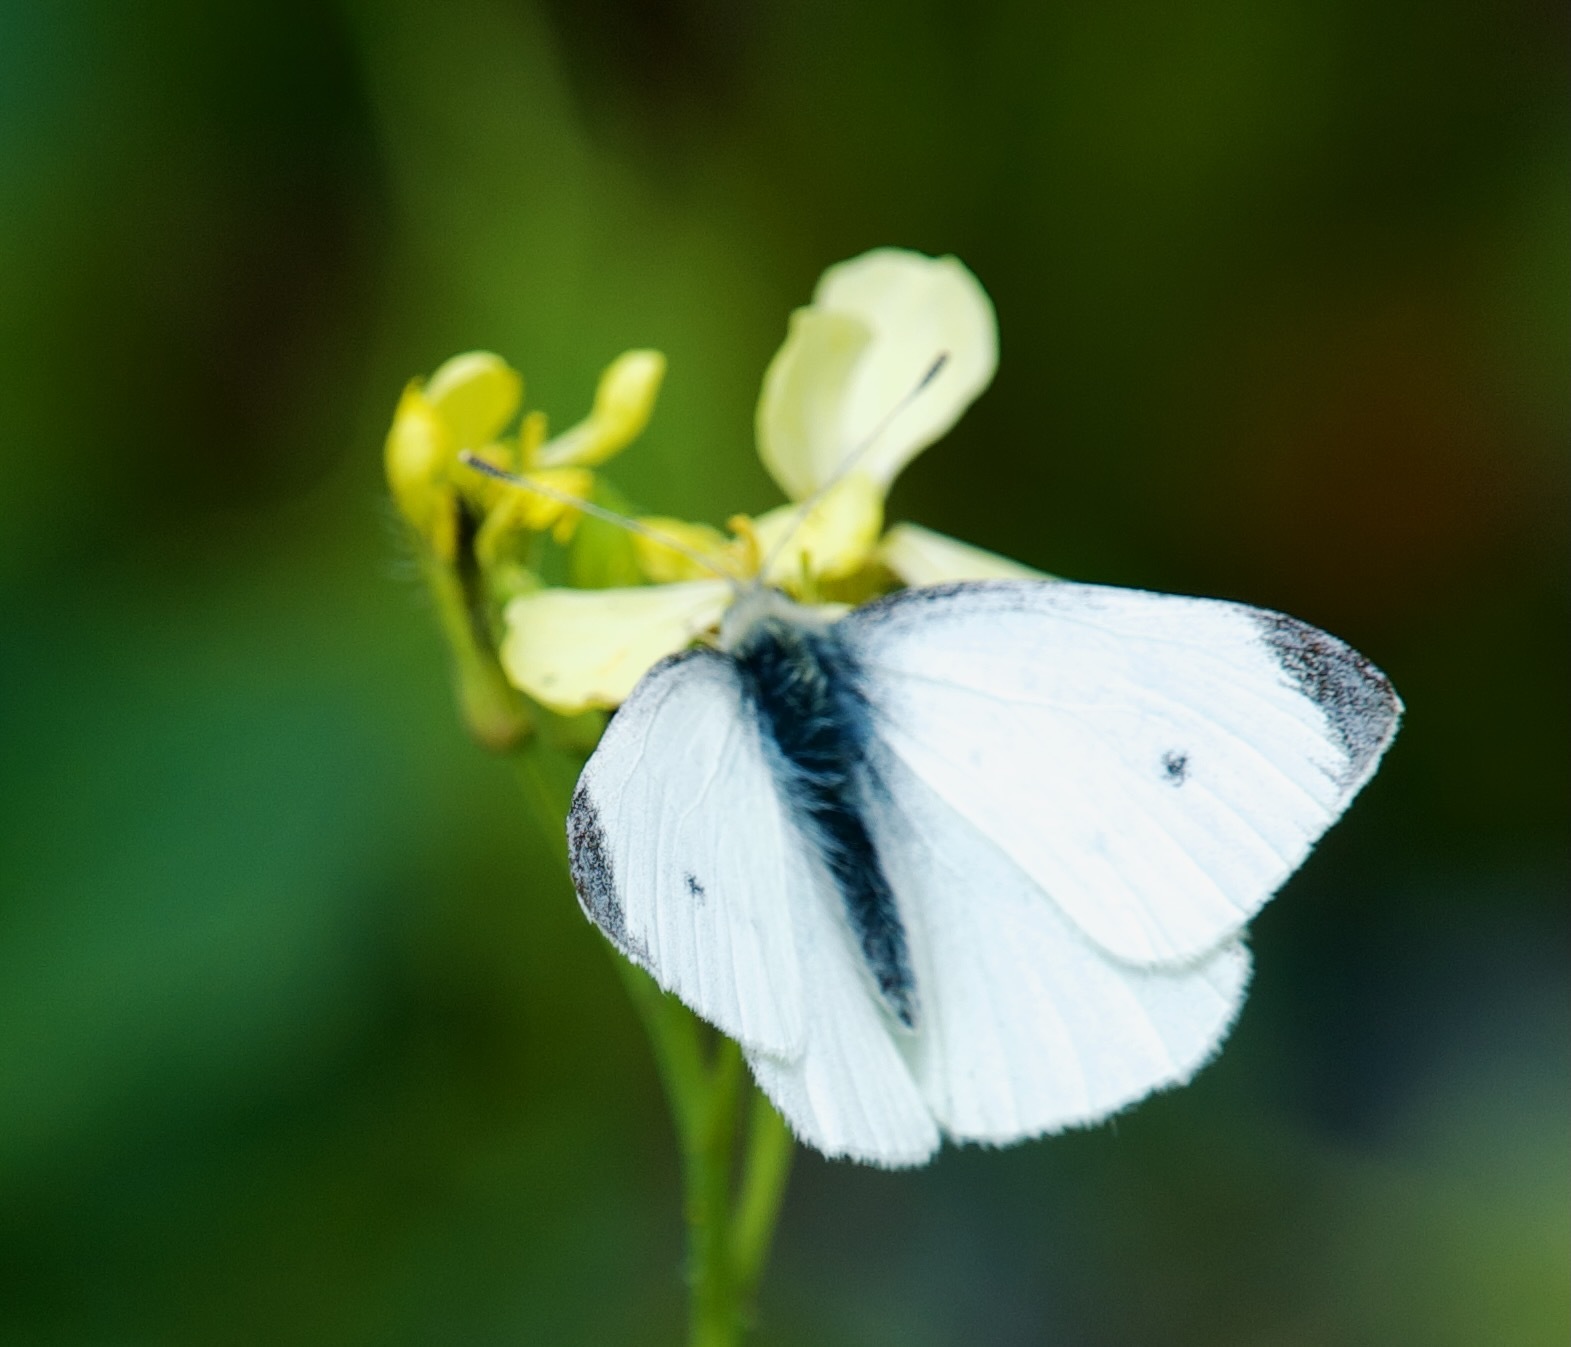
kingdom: Animalia
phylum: Arthropoda
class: Insecta
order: Lepidoptera
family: Pieridae
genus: Pieris
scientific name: Pieris rapae
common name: Small white
